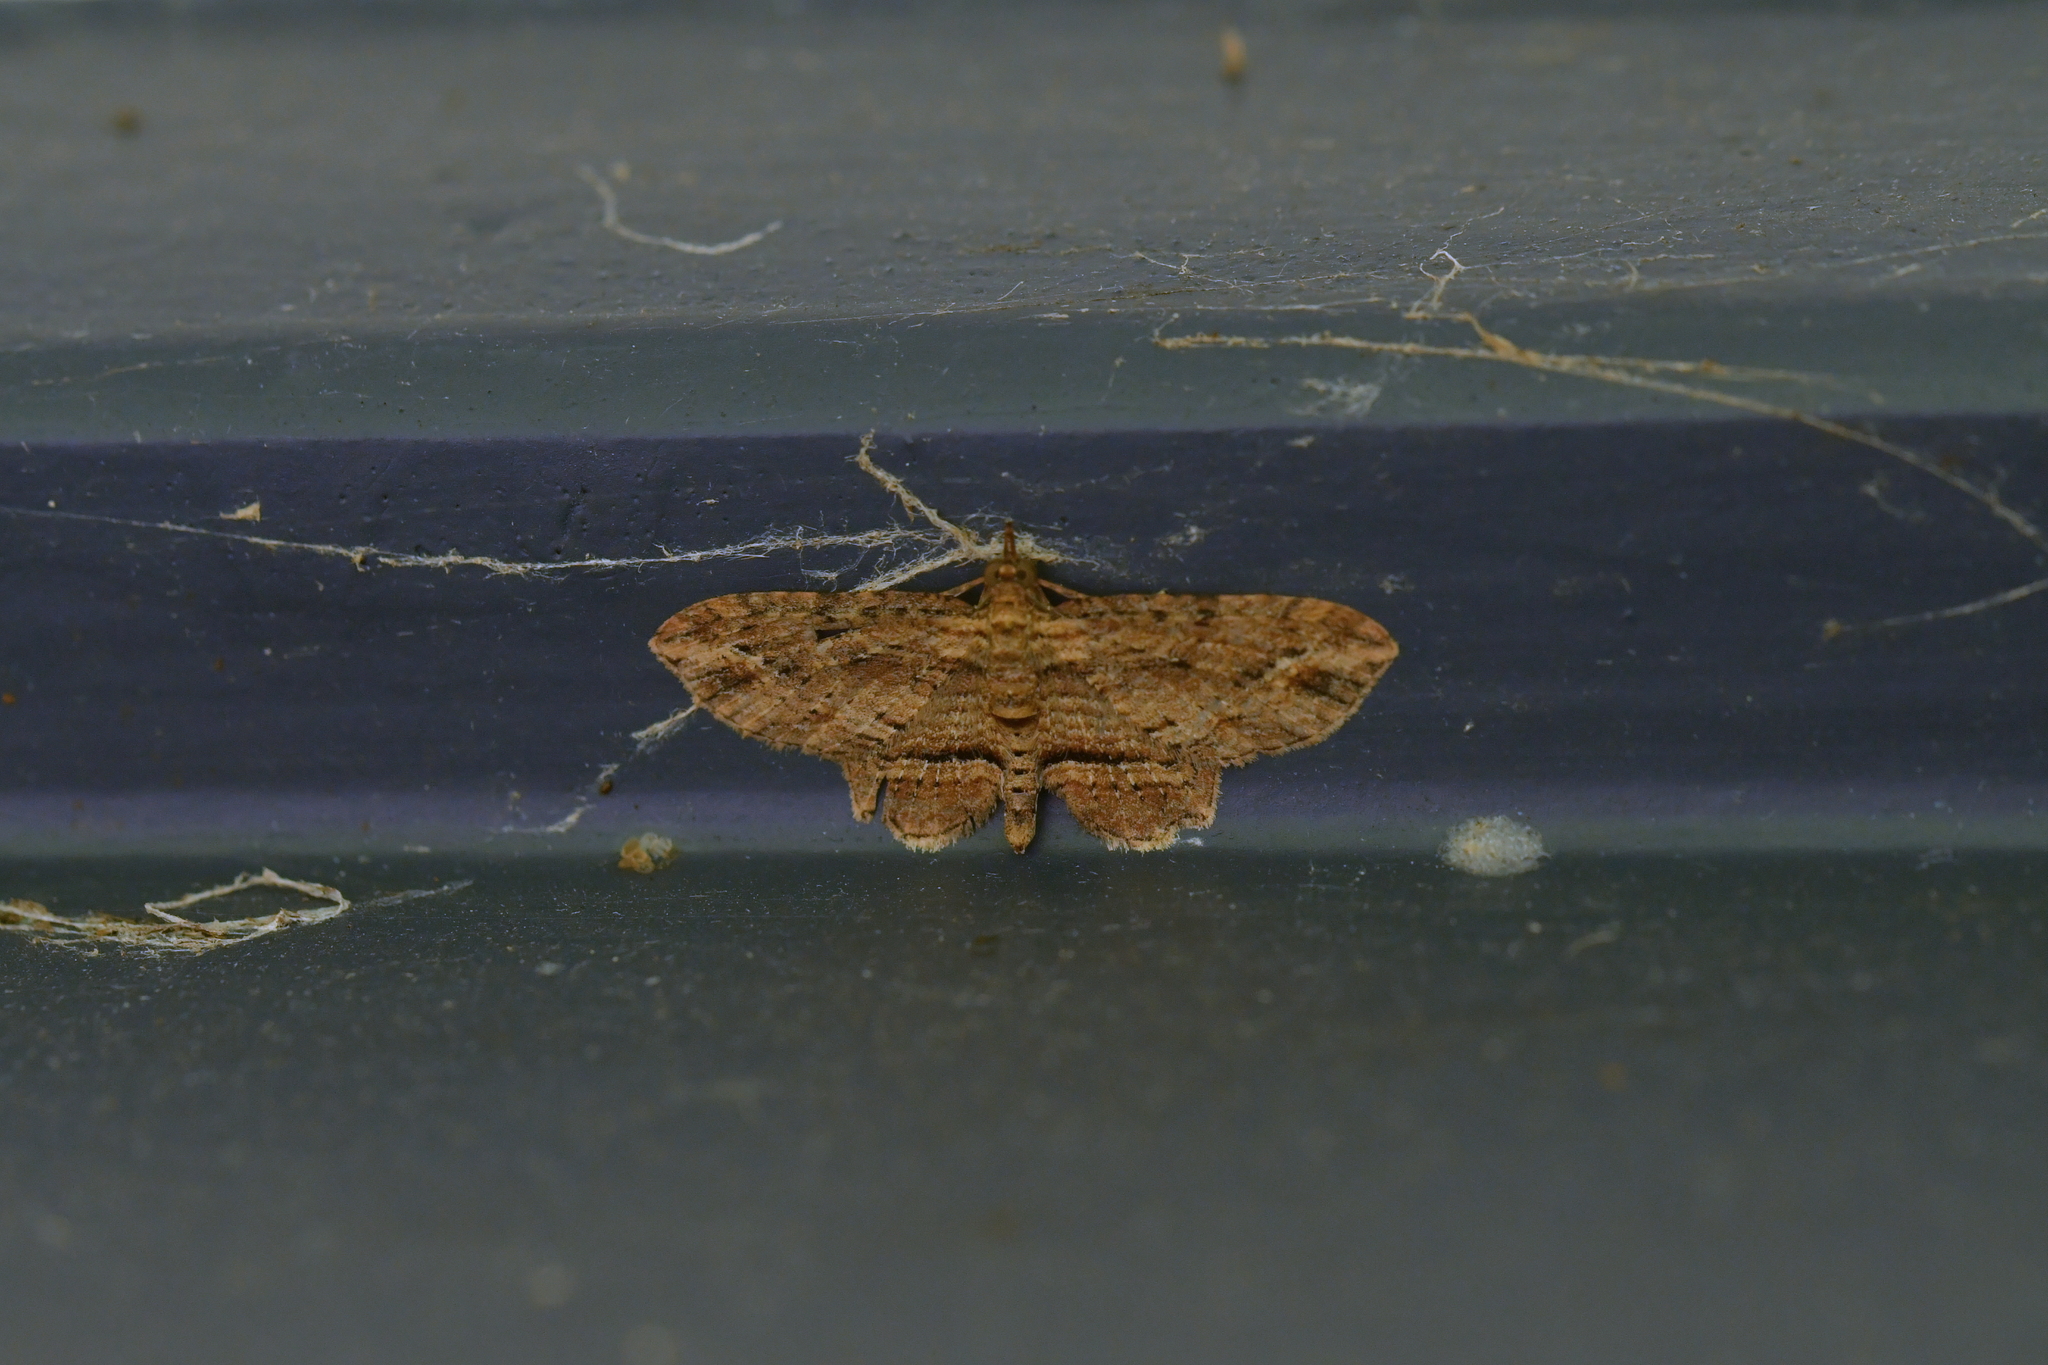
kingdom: Animalia
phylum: Arthropoda
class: Insecta
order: Lepidoptera
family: Geometridae
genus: Chloroclystis
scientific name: Chloroclystis filata
